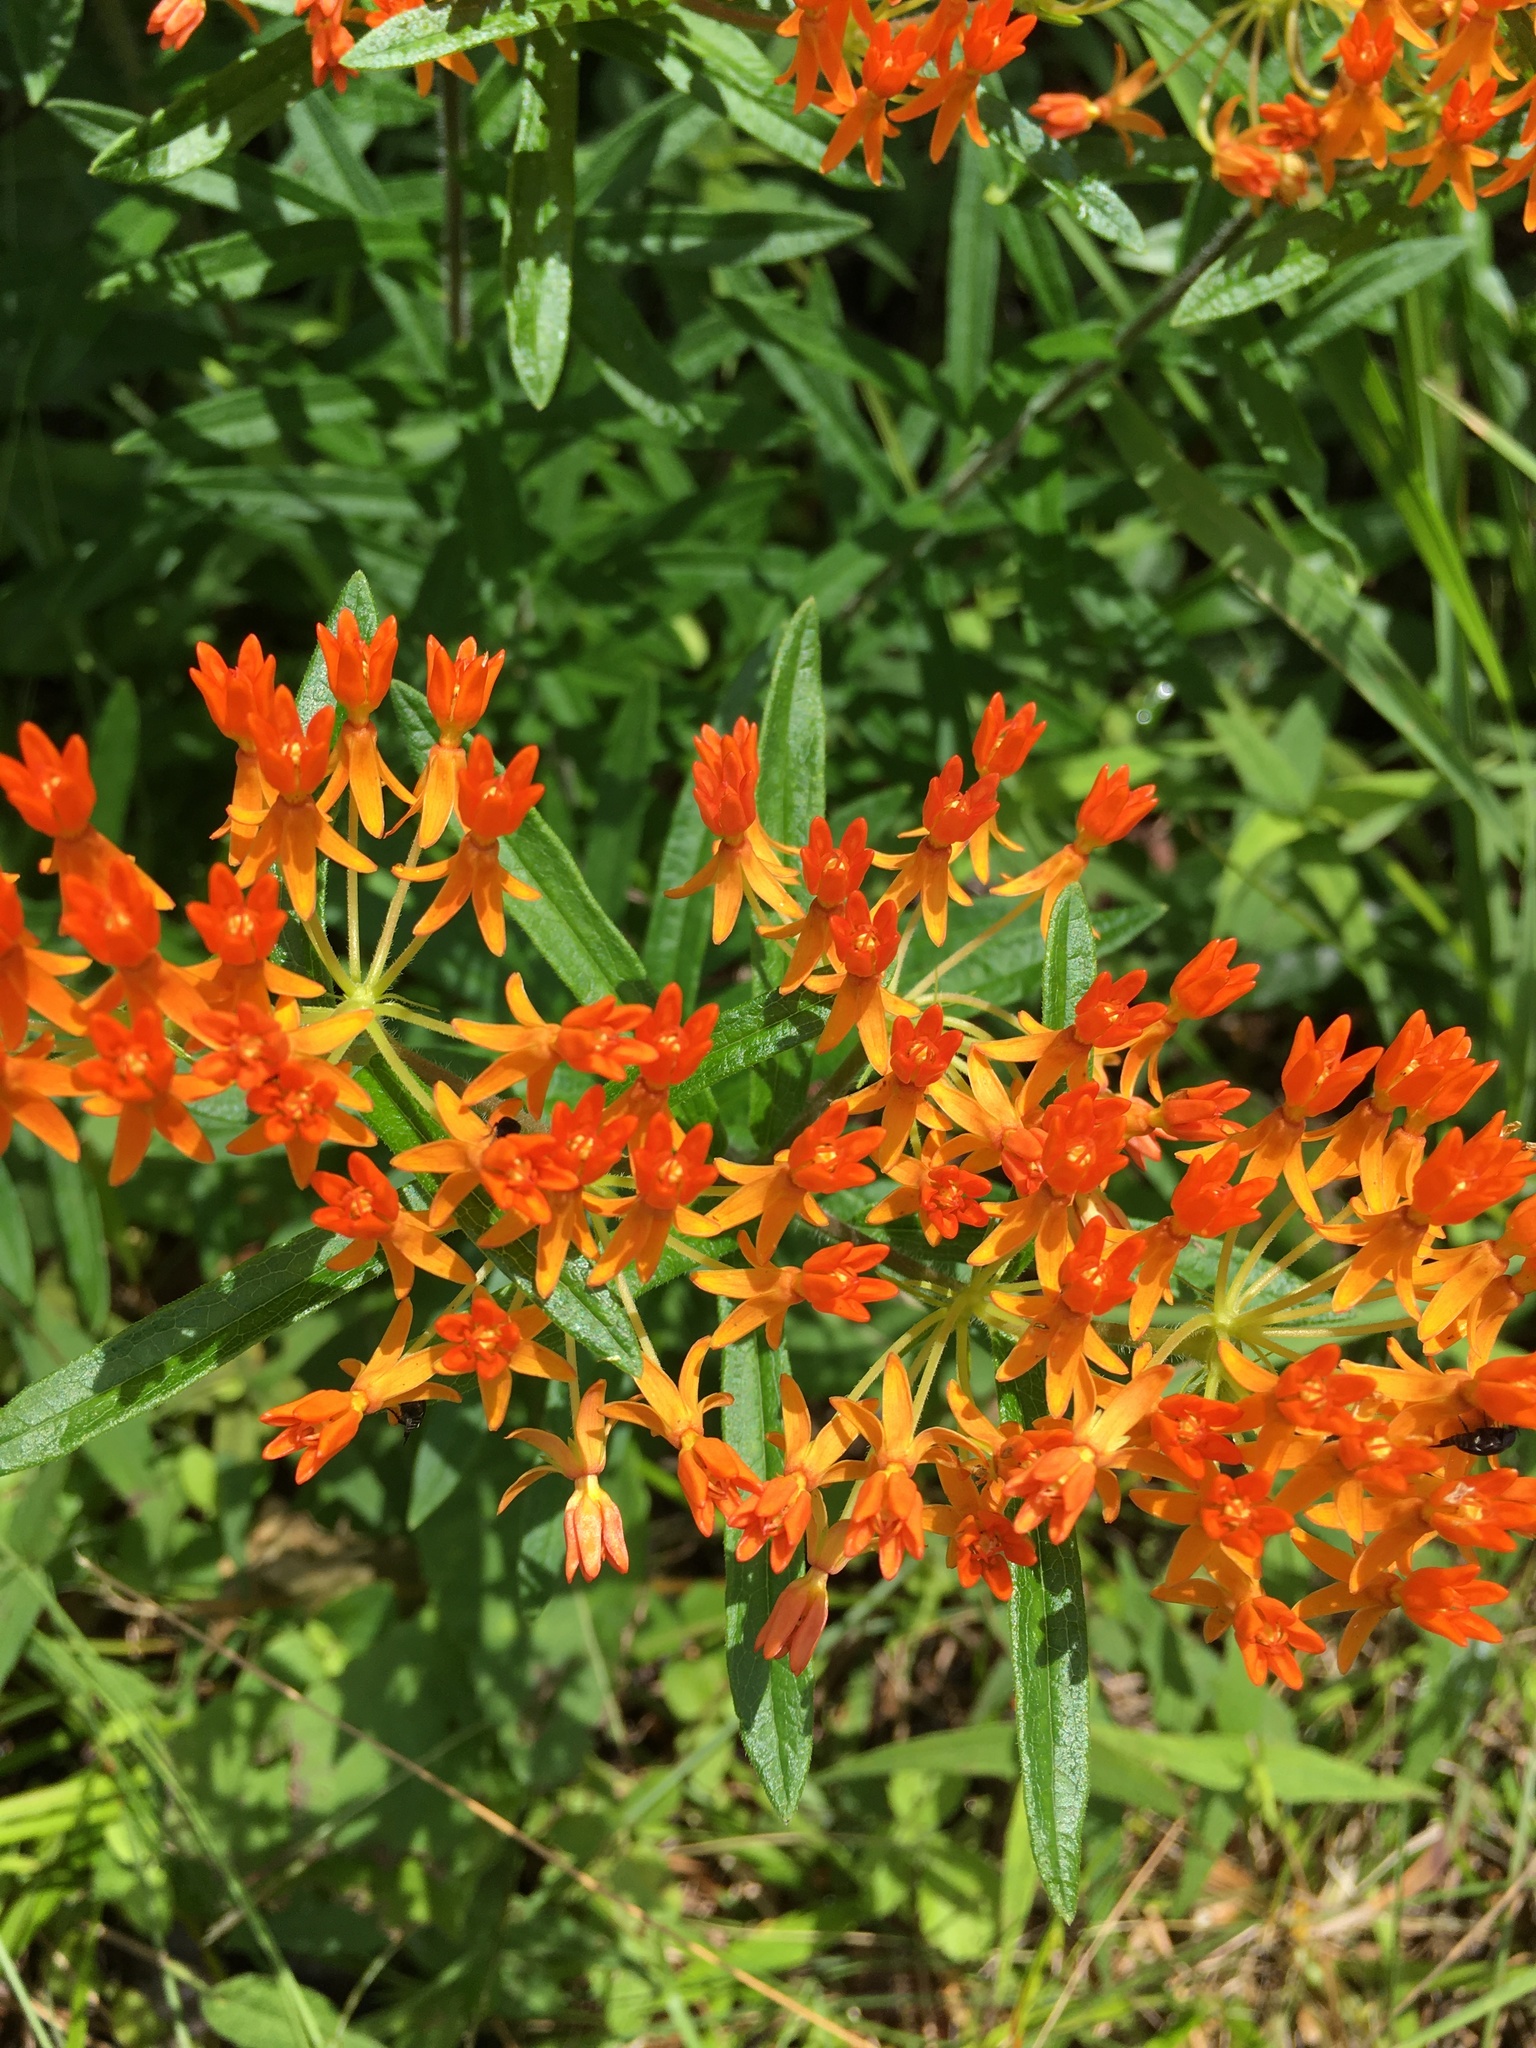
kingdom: Plantae
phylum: Tracheophyta
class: Magnoliopsida
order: Gentianales
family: Apocynaceae
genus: Asclepias
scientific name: Asclepias tuberosa
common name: Butterfly milkweed
